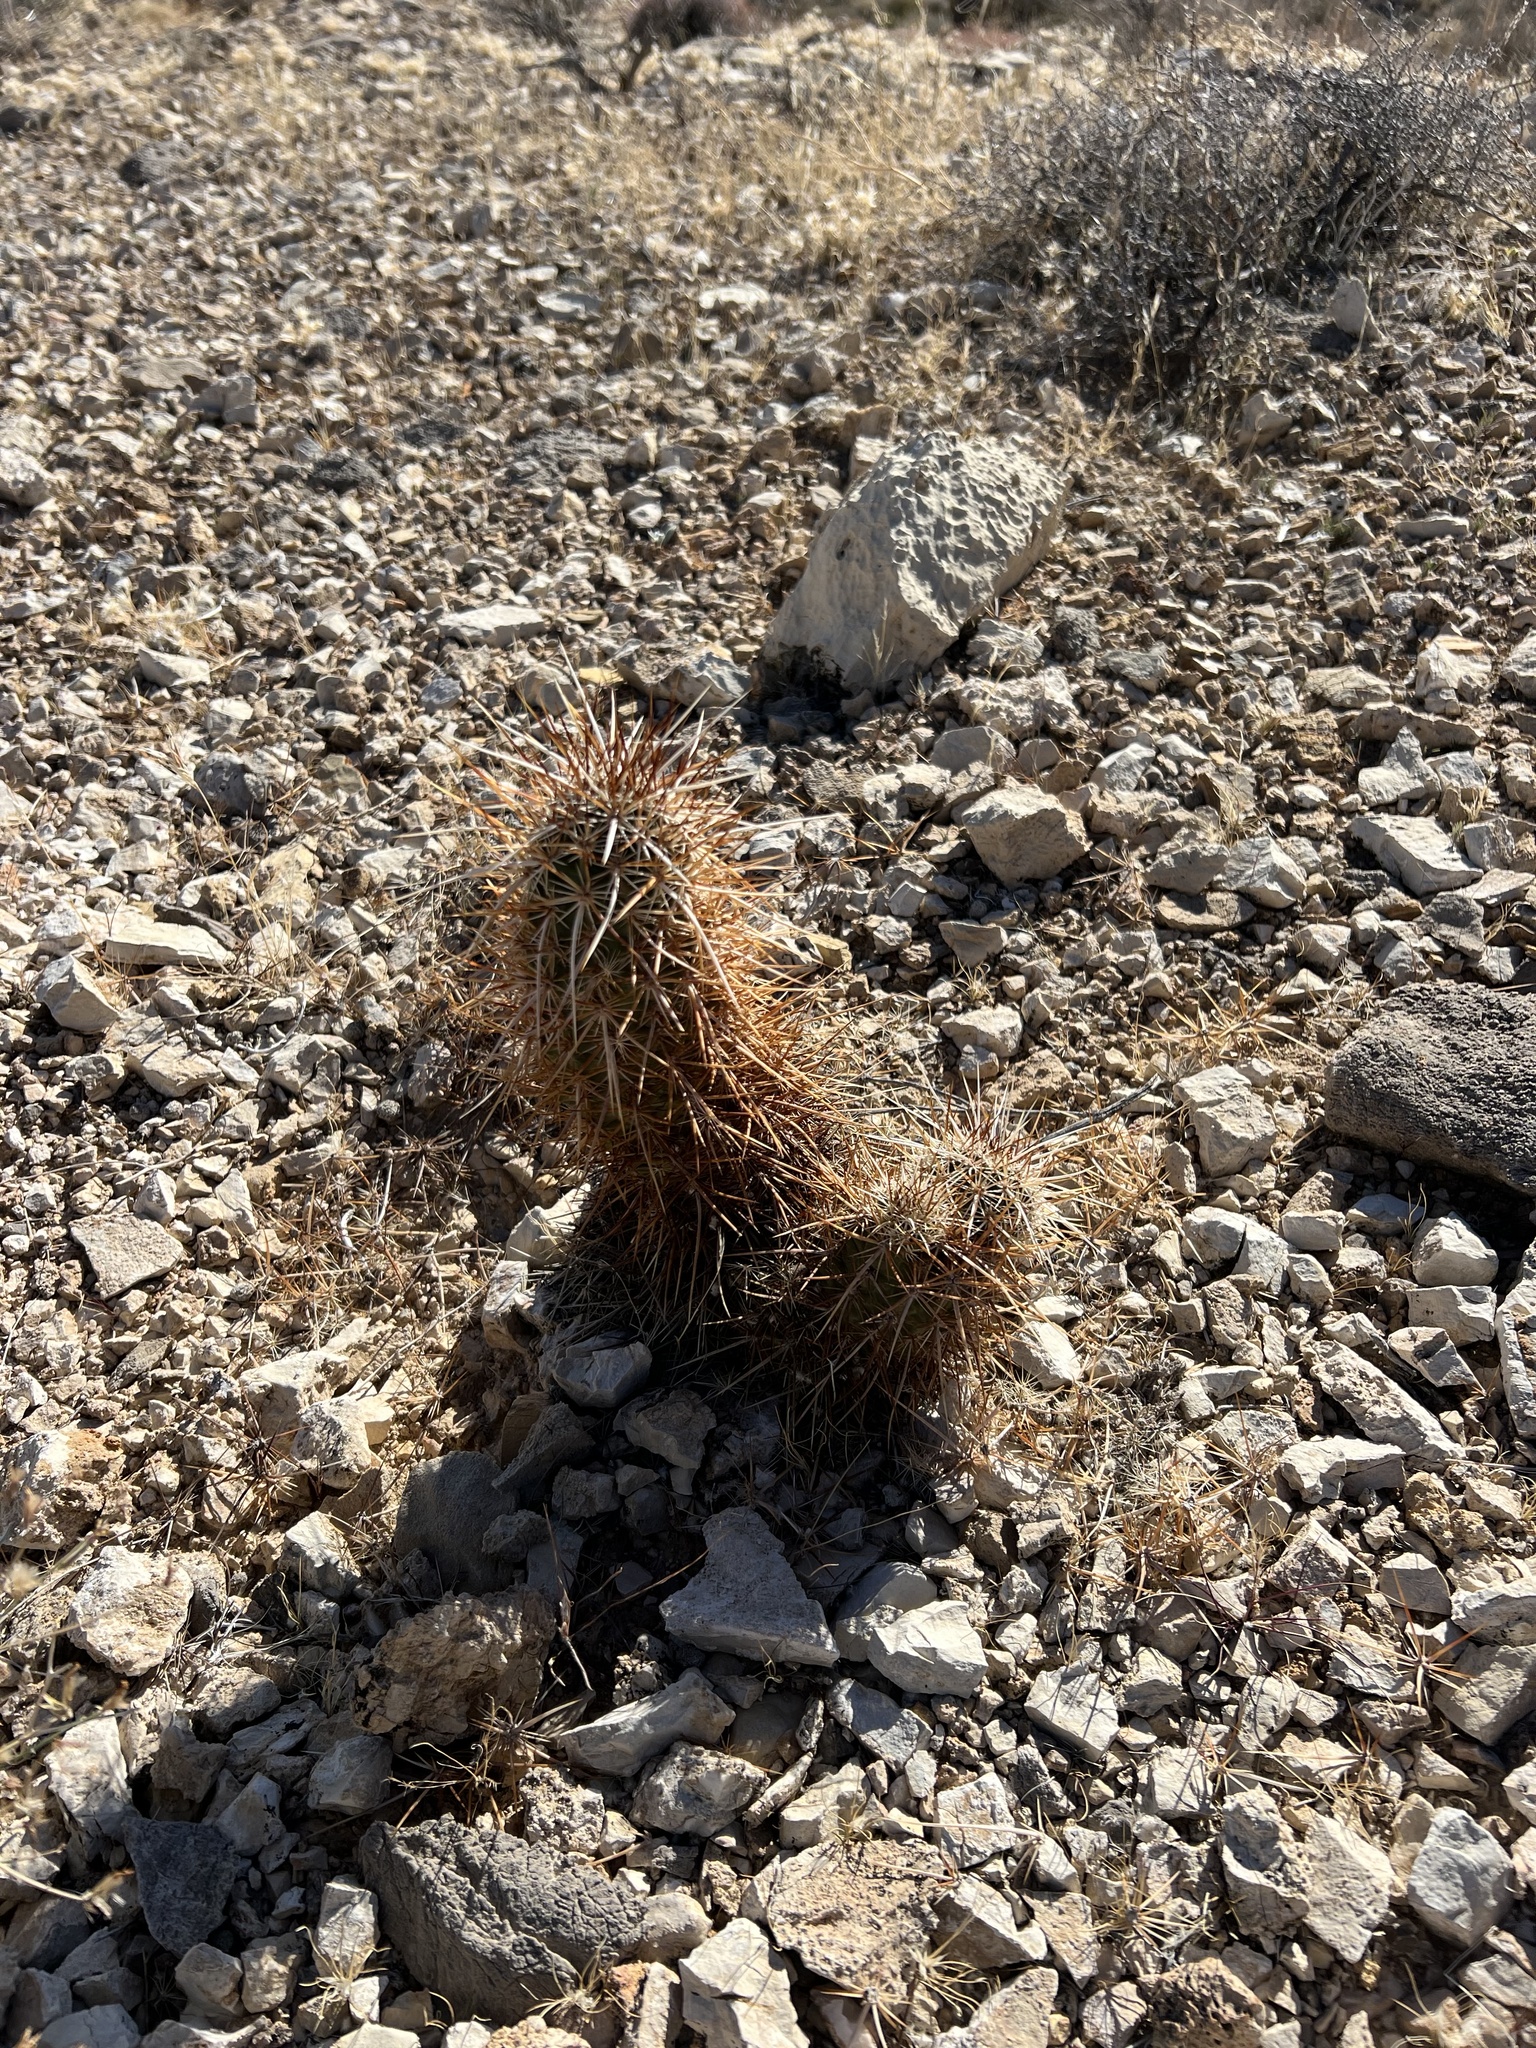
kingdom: Plantae
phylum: Tracheophyta
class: Magnoliopsida
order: Caryophyllales
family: Cactaceae
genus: Echinocereus
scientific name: Echinocereus engelmannii
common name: Engelmann's hedgehog cactus
